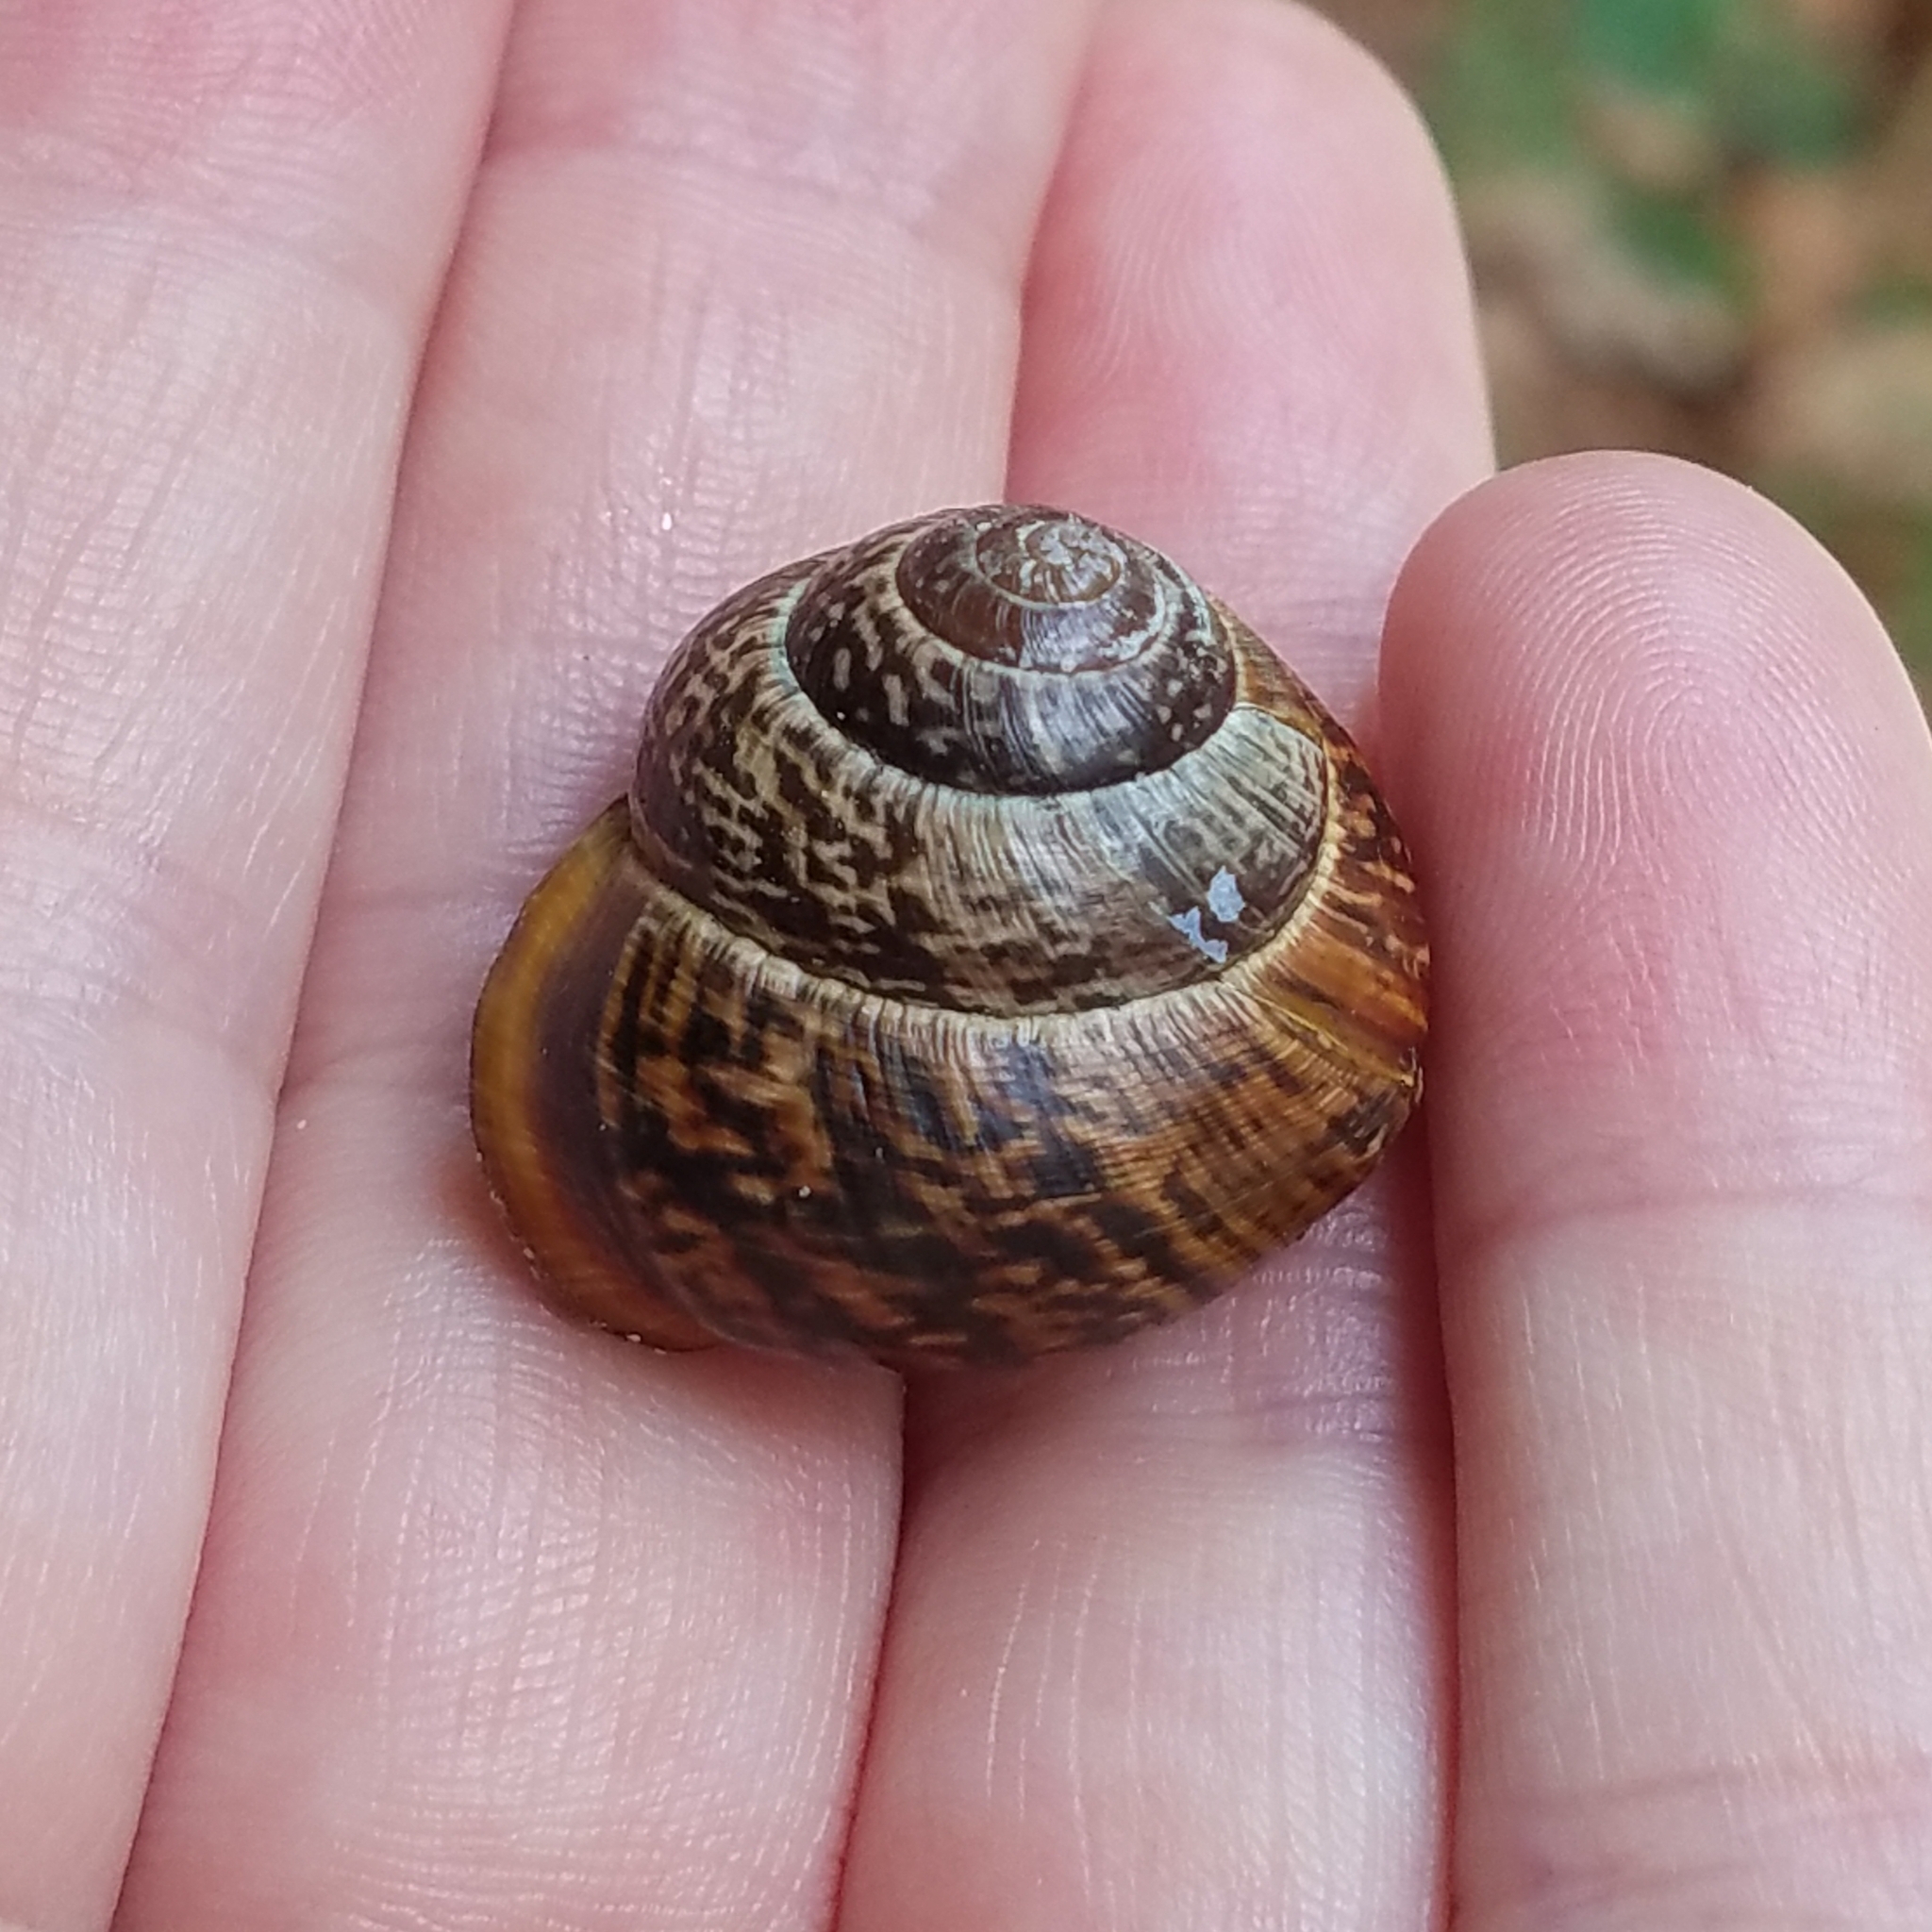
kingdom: Animalia
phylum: Mollusca
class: Gastropoda
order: Stylommatophora
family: Helicidae
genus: Arianta
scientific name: Arianta arbustorum
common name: Copse snail
